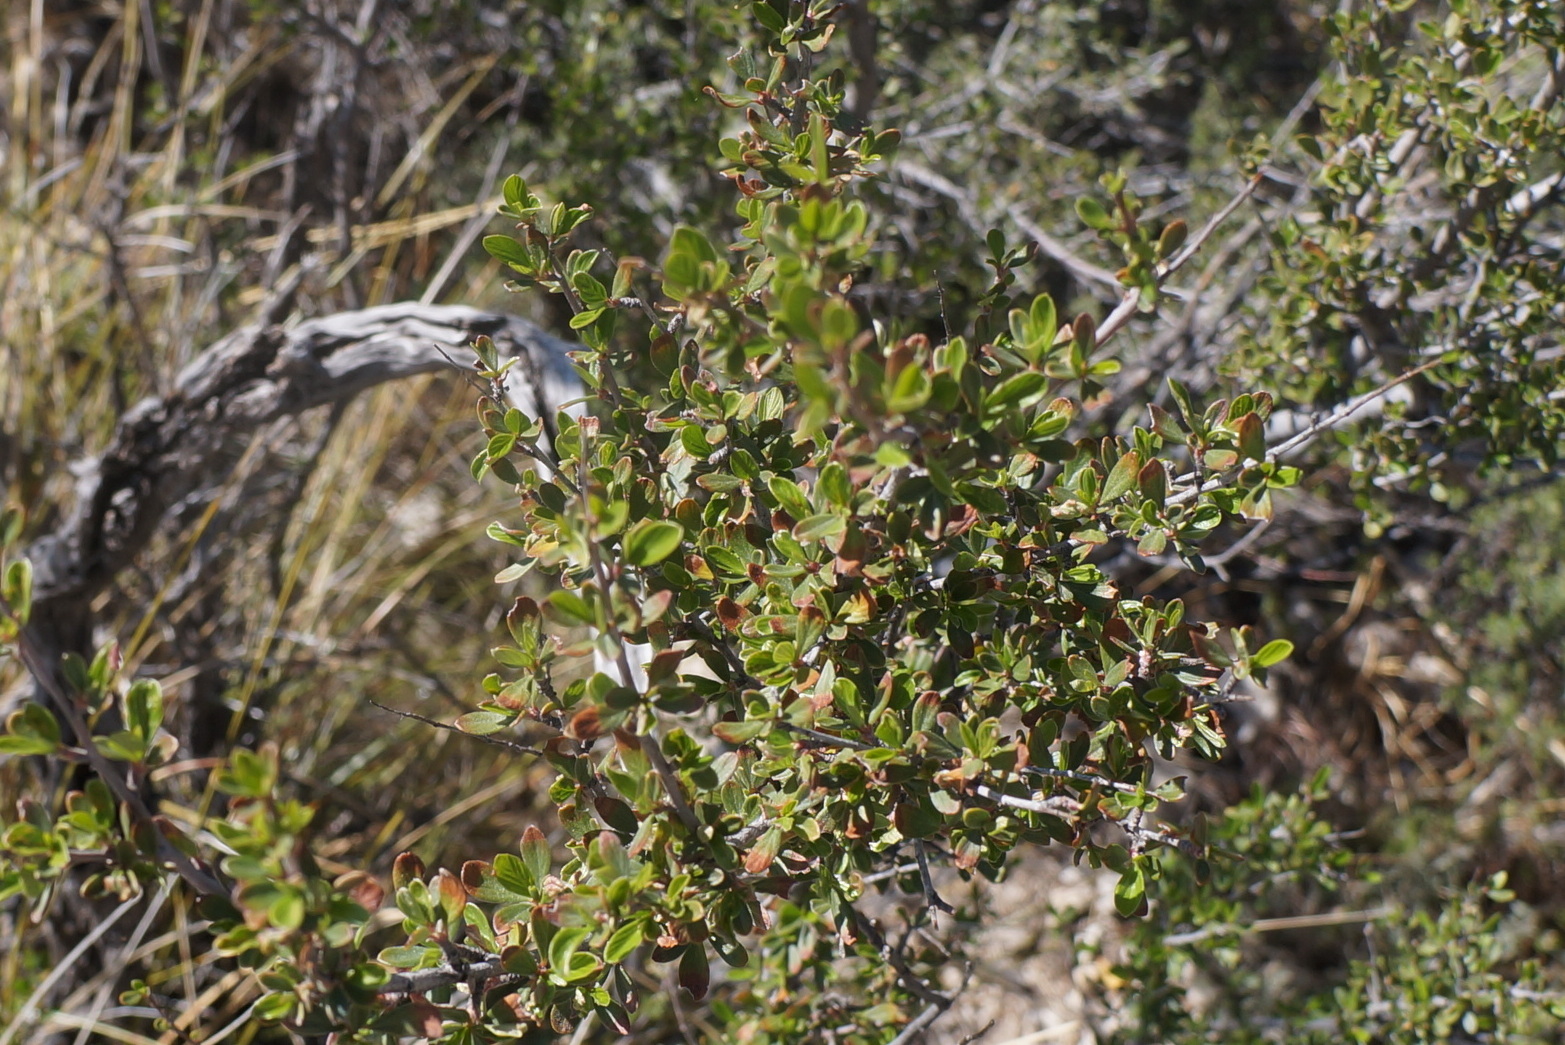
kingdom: Plantae
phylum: Tracheophyta
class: Magnoliopsida
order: Rosales
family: Rosaceae
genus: Cercocarpus
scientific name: Cercocarpus breviflorus
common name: Wright's mountain-mahogany
